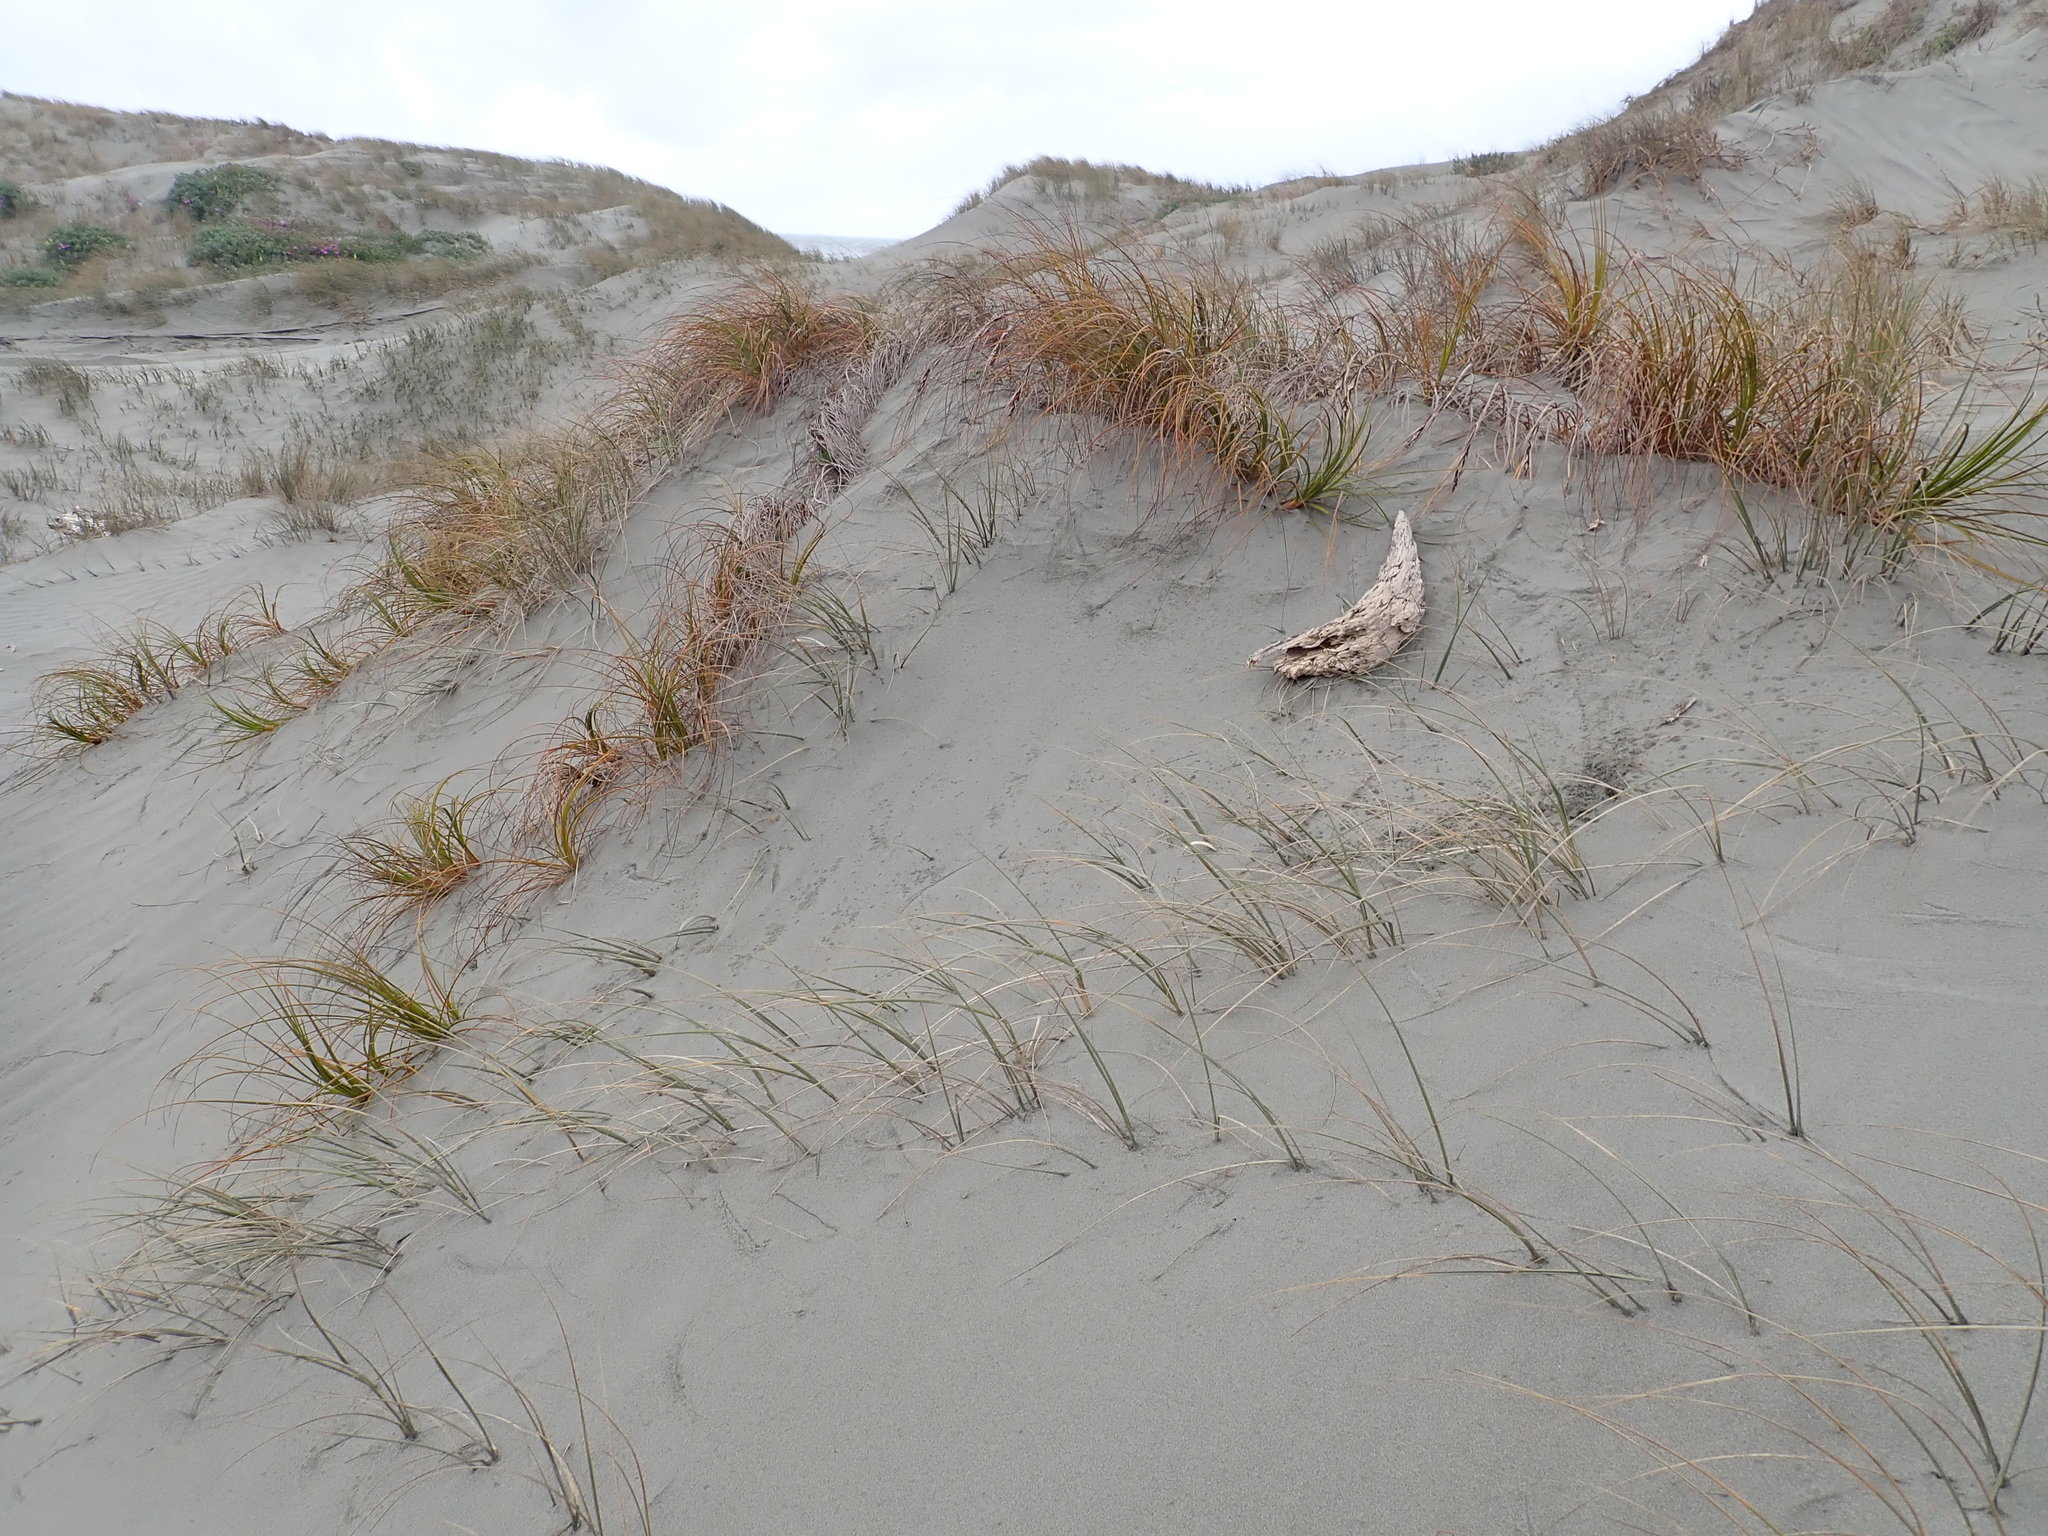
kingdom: Plantae
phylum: Tracheophyta
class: Liliopsida
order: Poales
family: Cyperaceae
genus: Ficinia
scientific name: Ficinia spiralis
